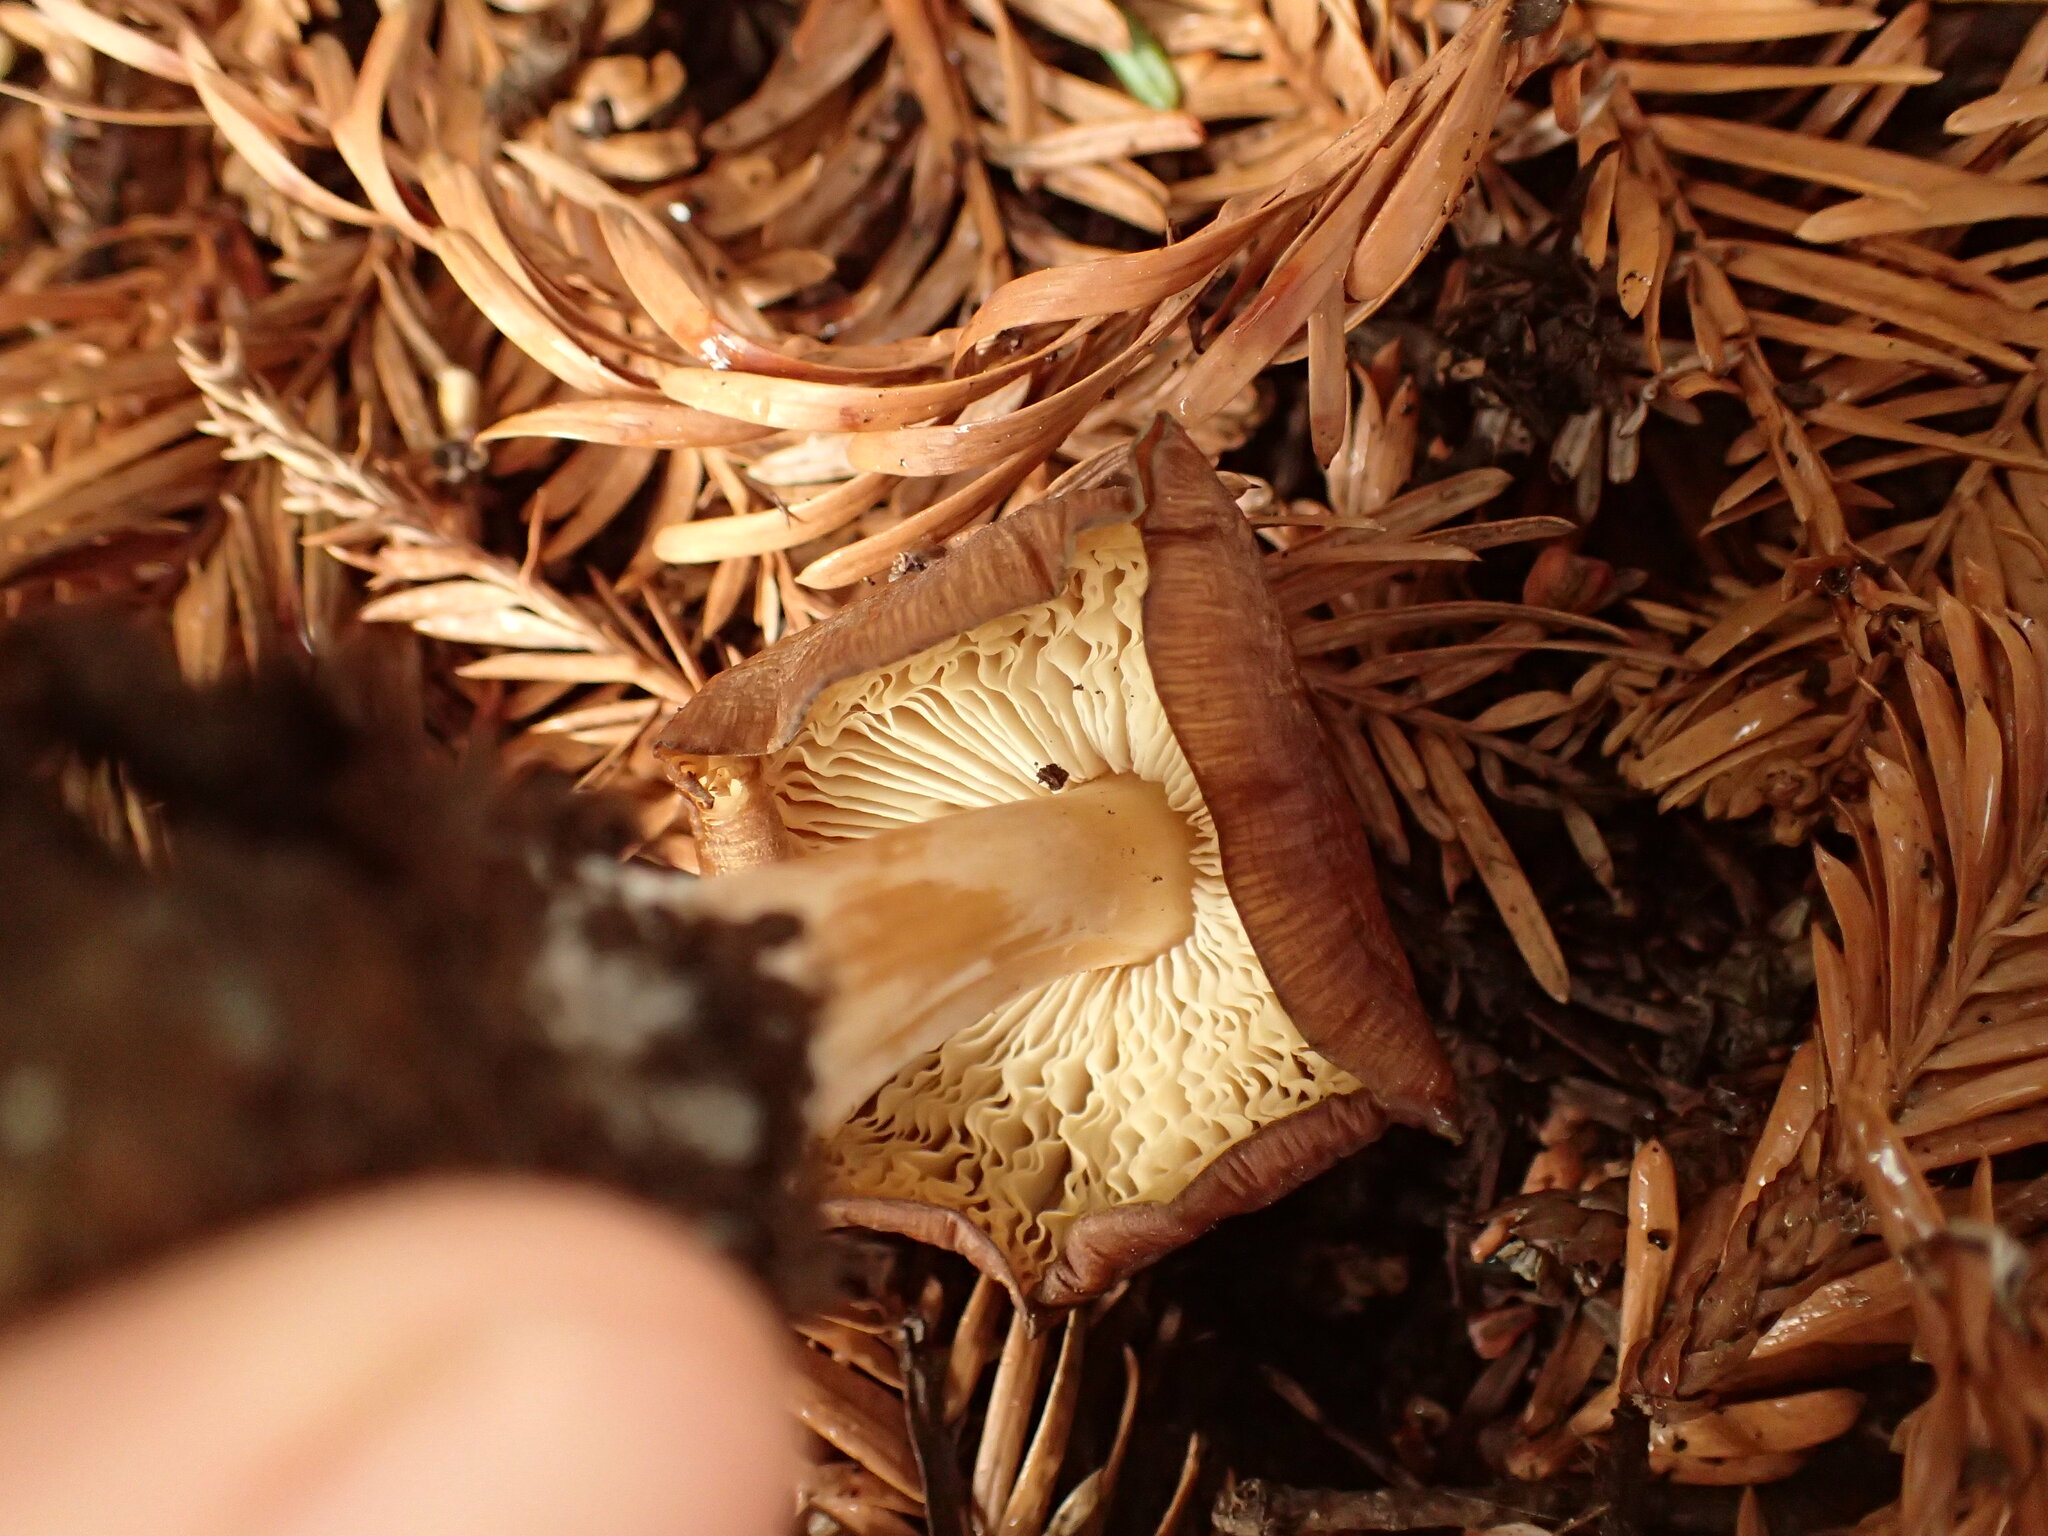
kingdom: Fungi
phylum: Basidiomycota
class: Agaricomycetes
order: Agaricales
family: Tricholomataceae
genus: Caulorhiza
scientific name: Caulorhiza umbonata
